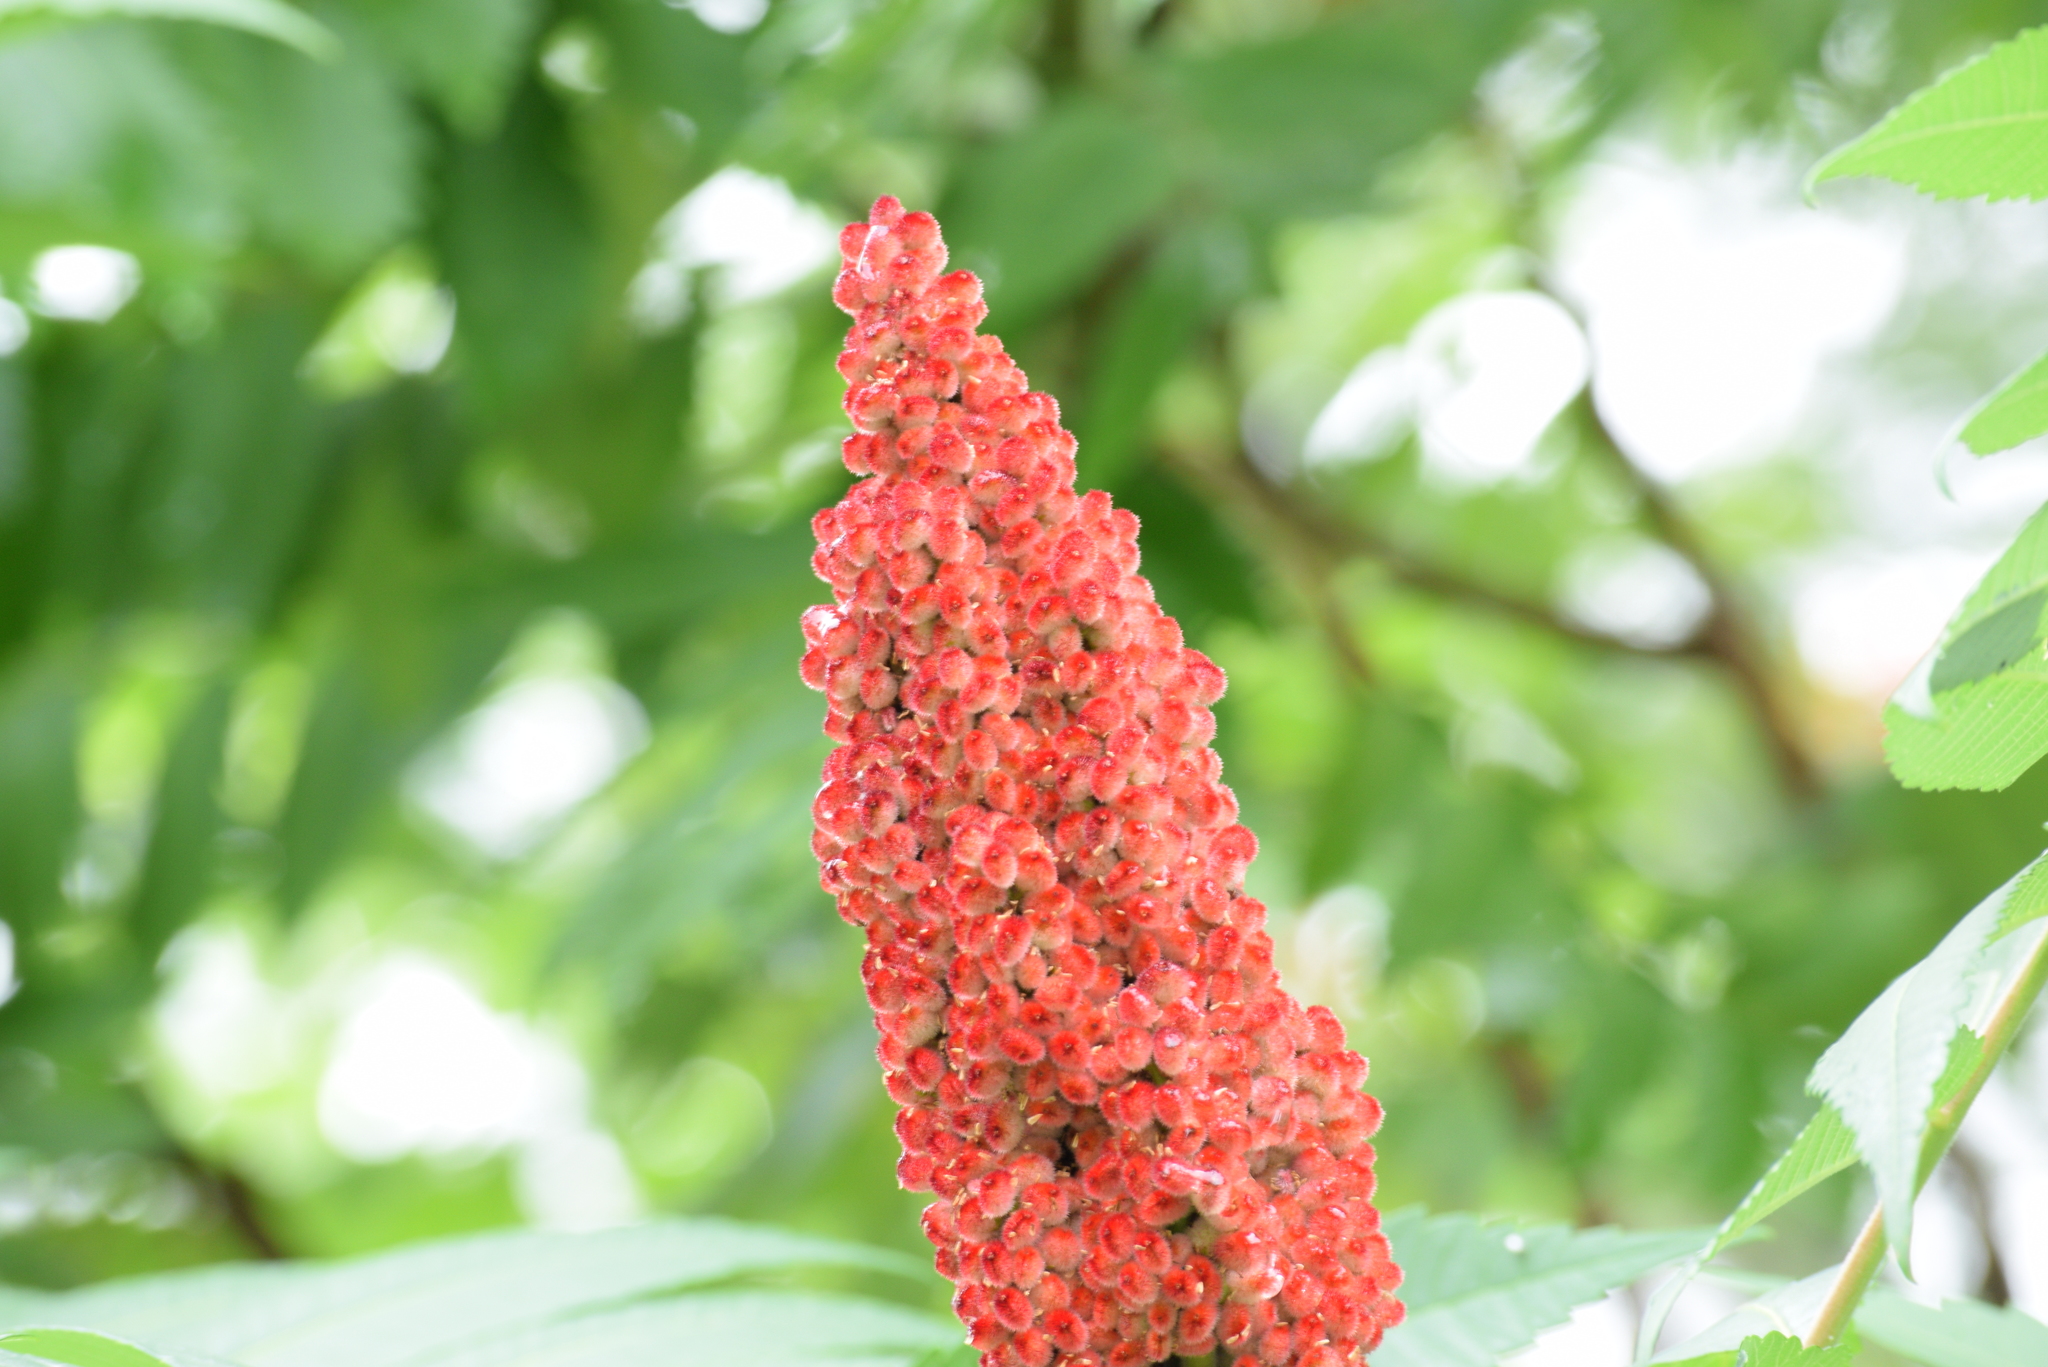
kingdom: Plantae
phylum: Tracheophyta
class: Magnoliopsida
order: Sapindales
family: Anacardiaceae
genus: Rhus
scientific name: Rhus typhina
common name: Staghorn sumac
